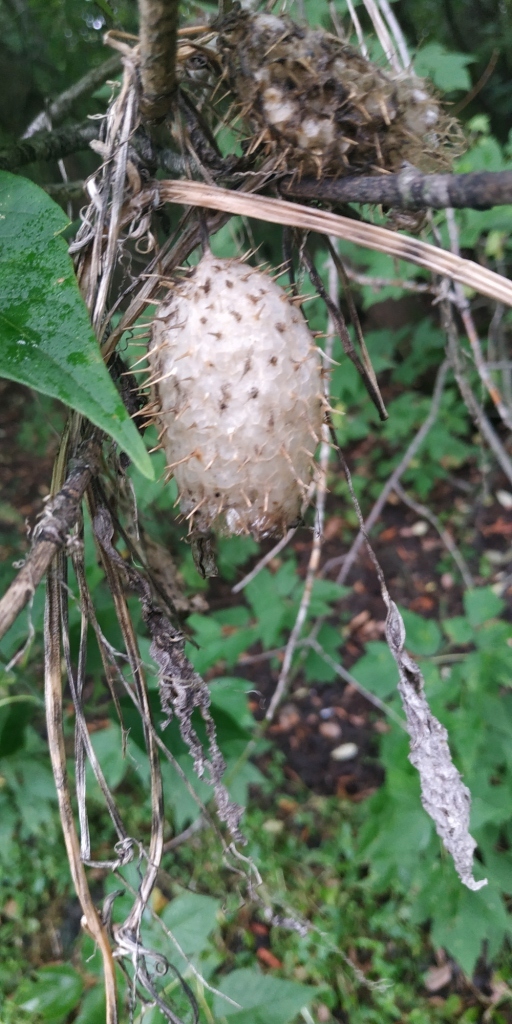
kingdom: Plantae
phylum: Tracheophyta
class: Magnoliopsida
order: Cucurbitales
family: Cucurbitaceae
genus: Echinocystis
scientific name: Echinocystis lobata
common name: Wild cucumber
